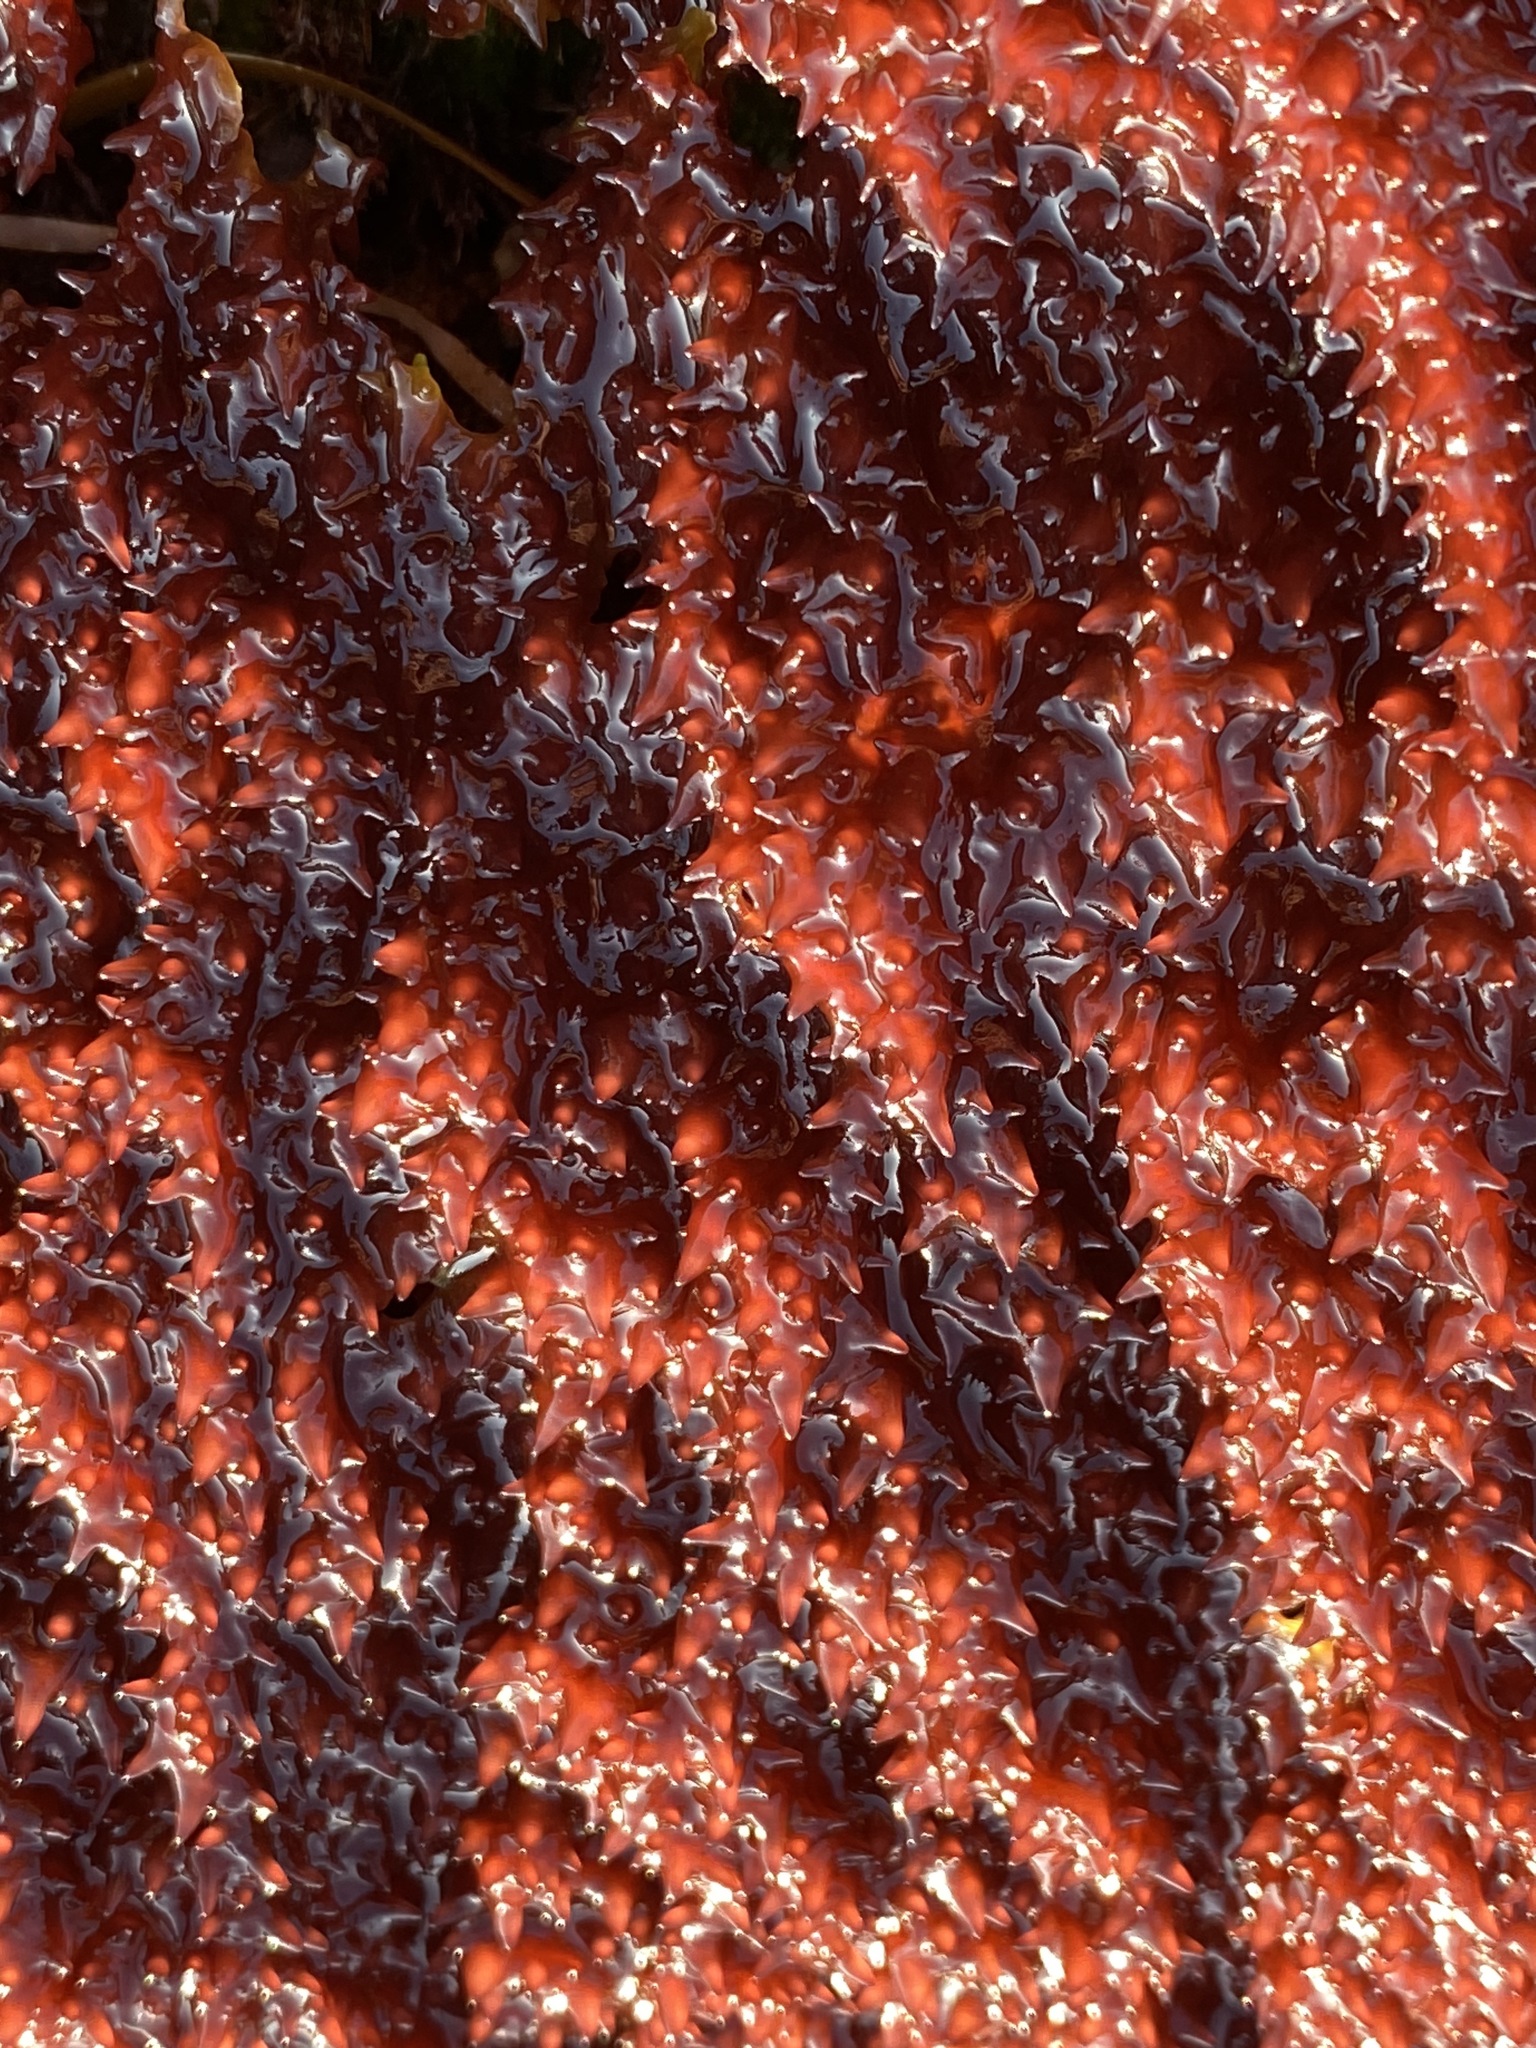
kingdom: Plantae
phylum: Rhodophyta
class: Florideophyceae
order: Gigartinales
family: Gigartinaceae
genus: Chondracanthus
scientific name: Chondracanthus exasperatus
